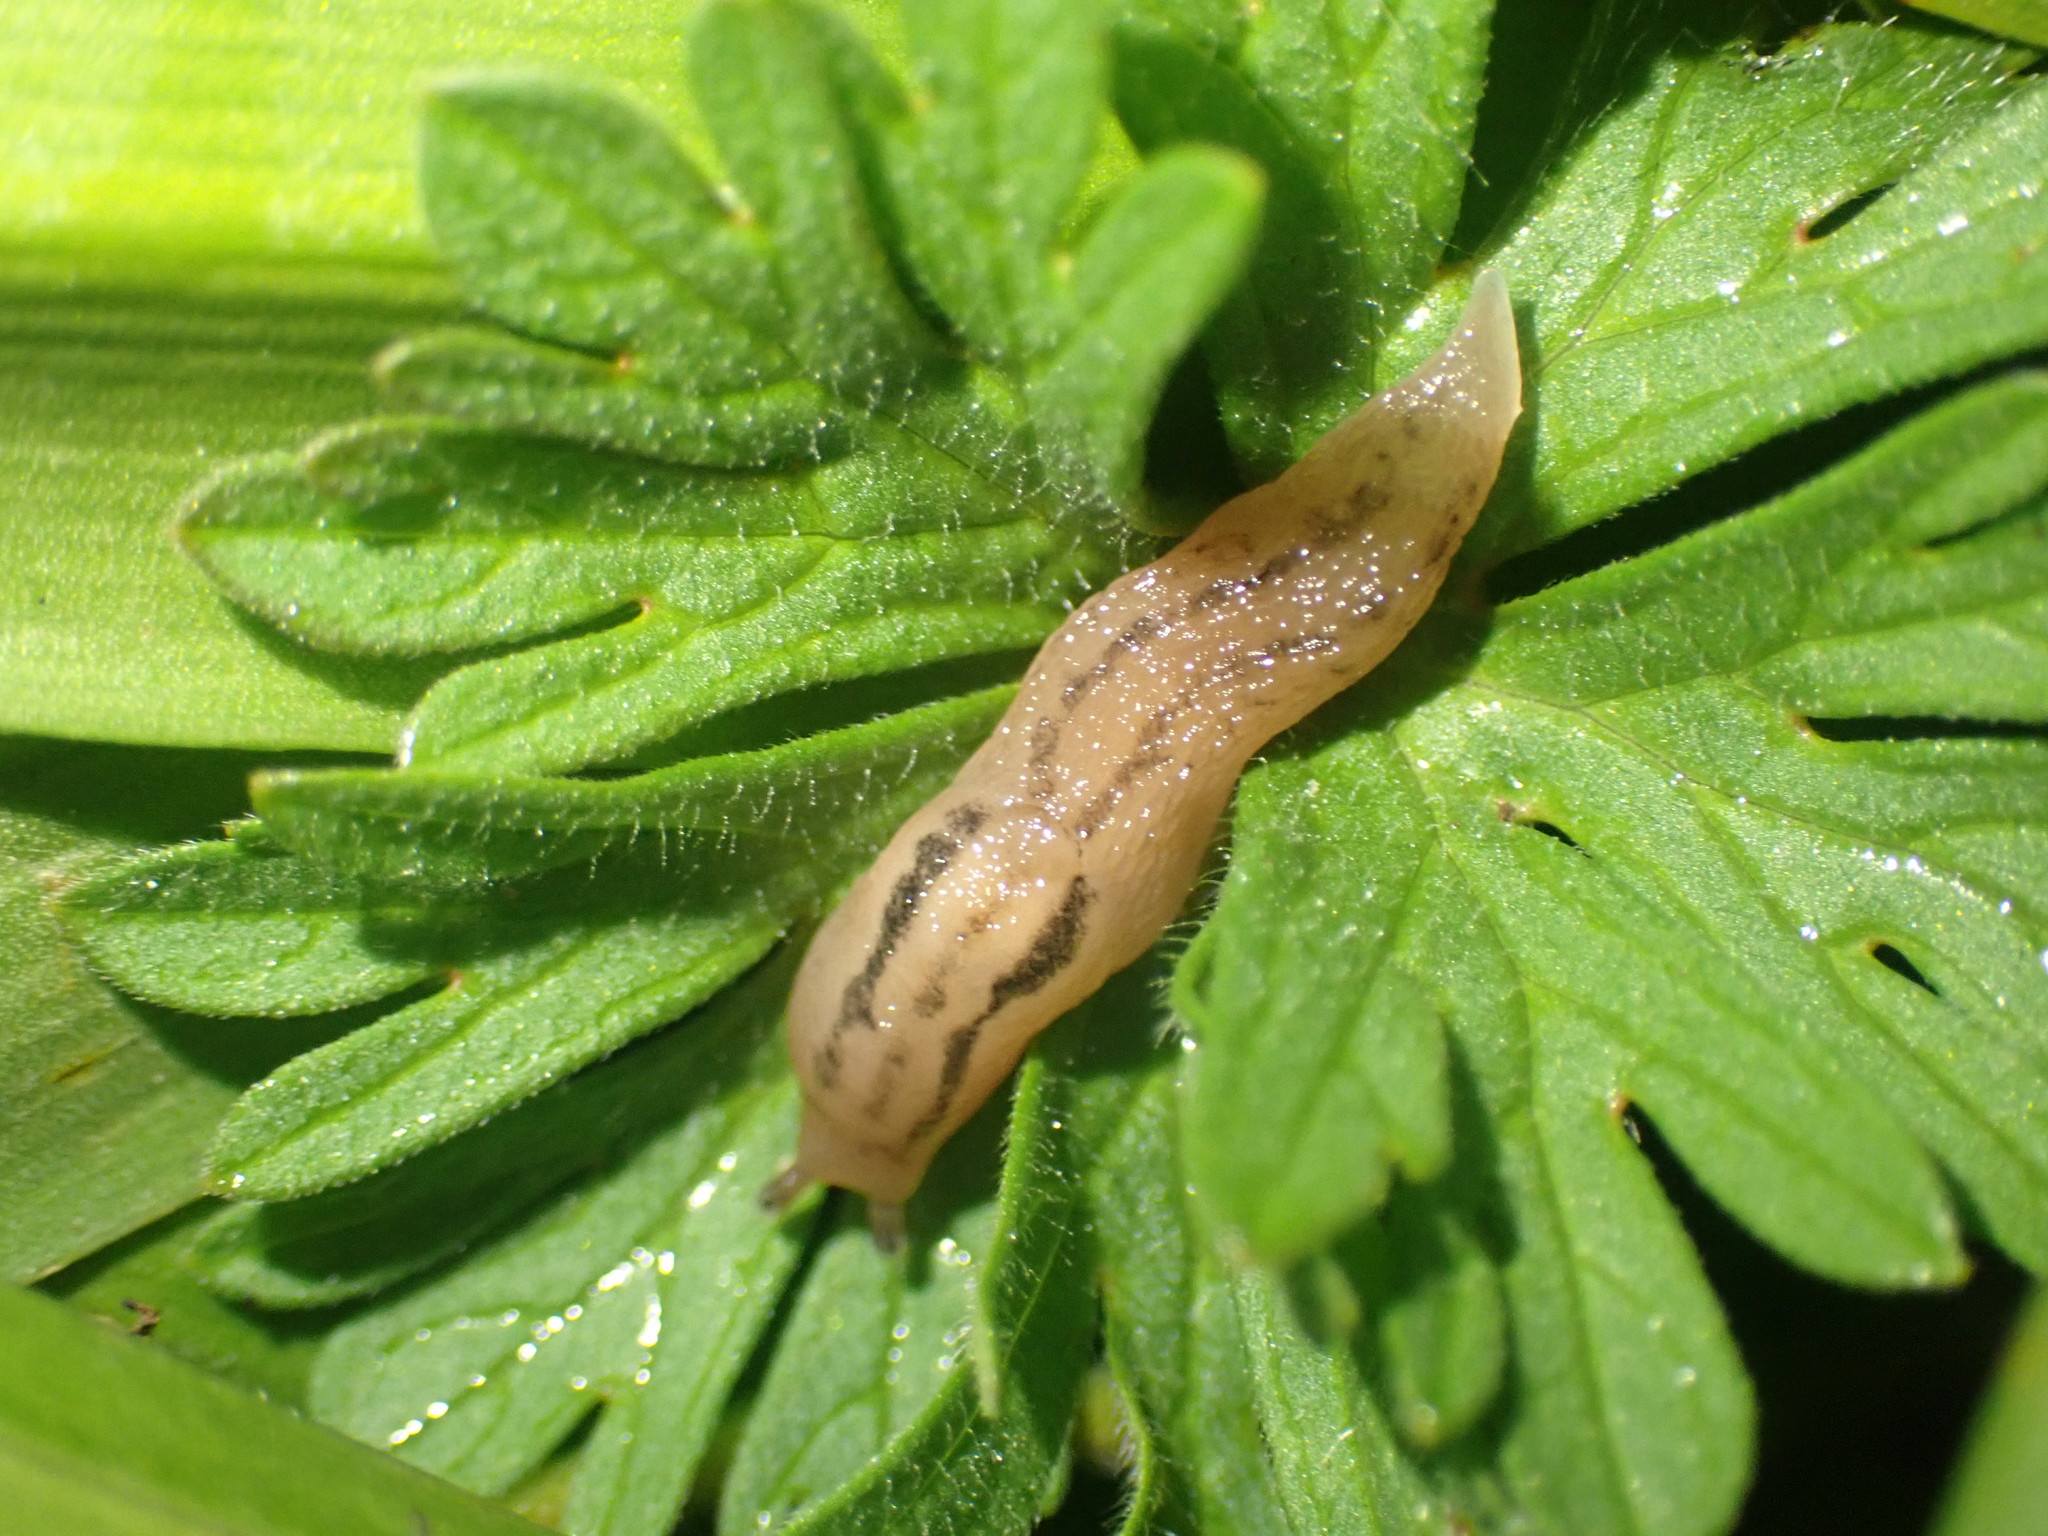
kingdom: Animalia
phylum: Mollusca
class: Gastropoda
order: Stylommatophora
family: Limacidae
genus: Ambigolimax
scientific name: Ambigolimax
